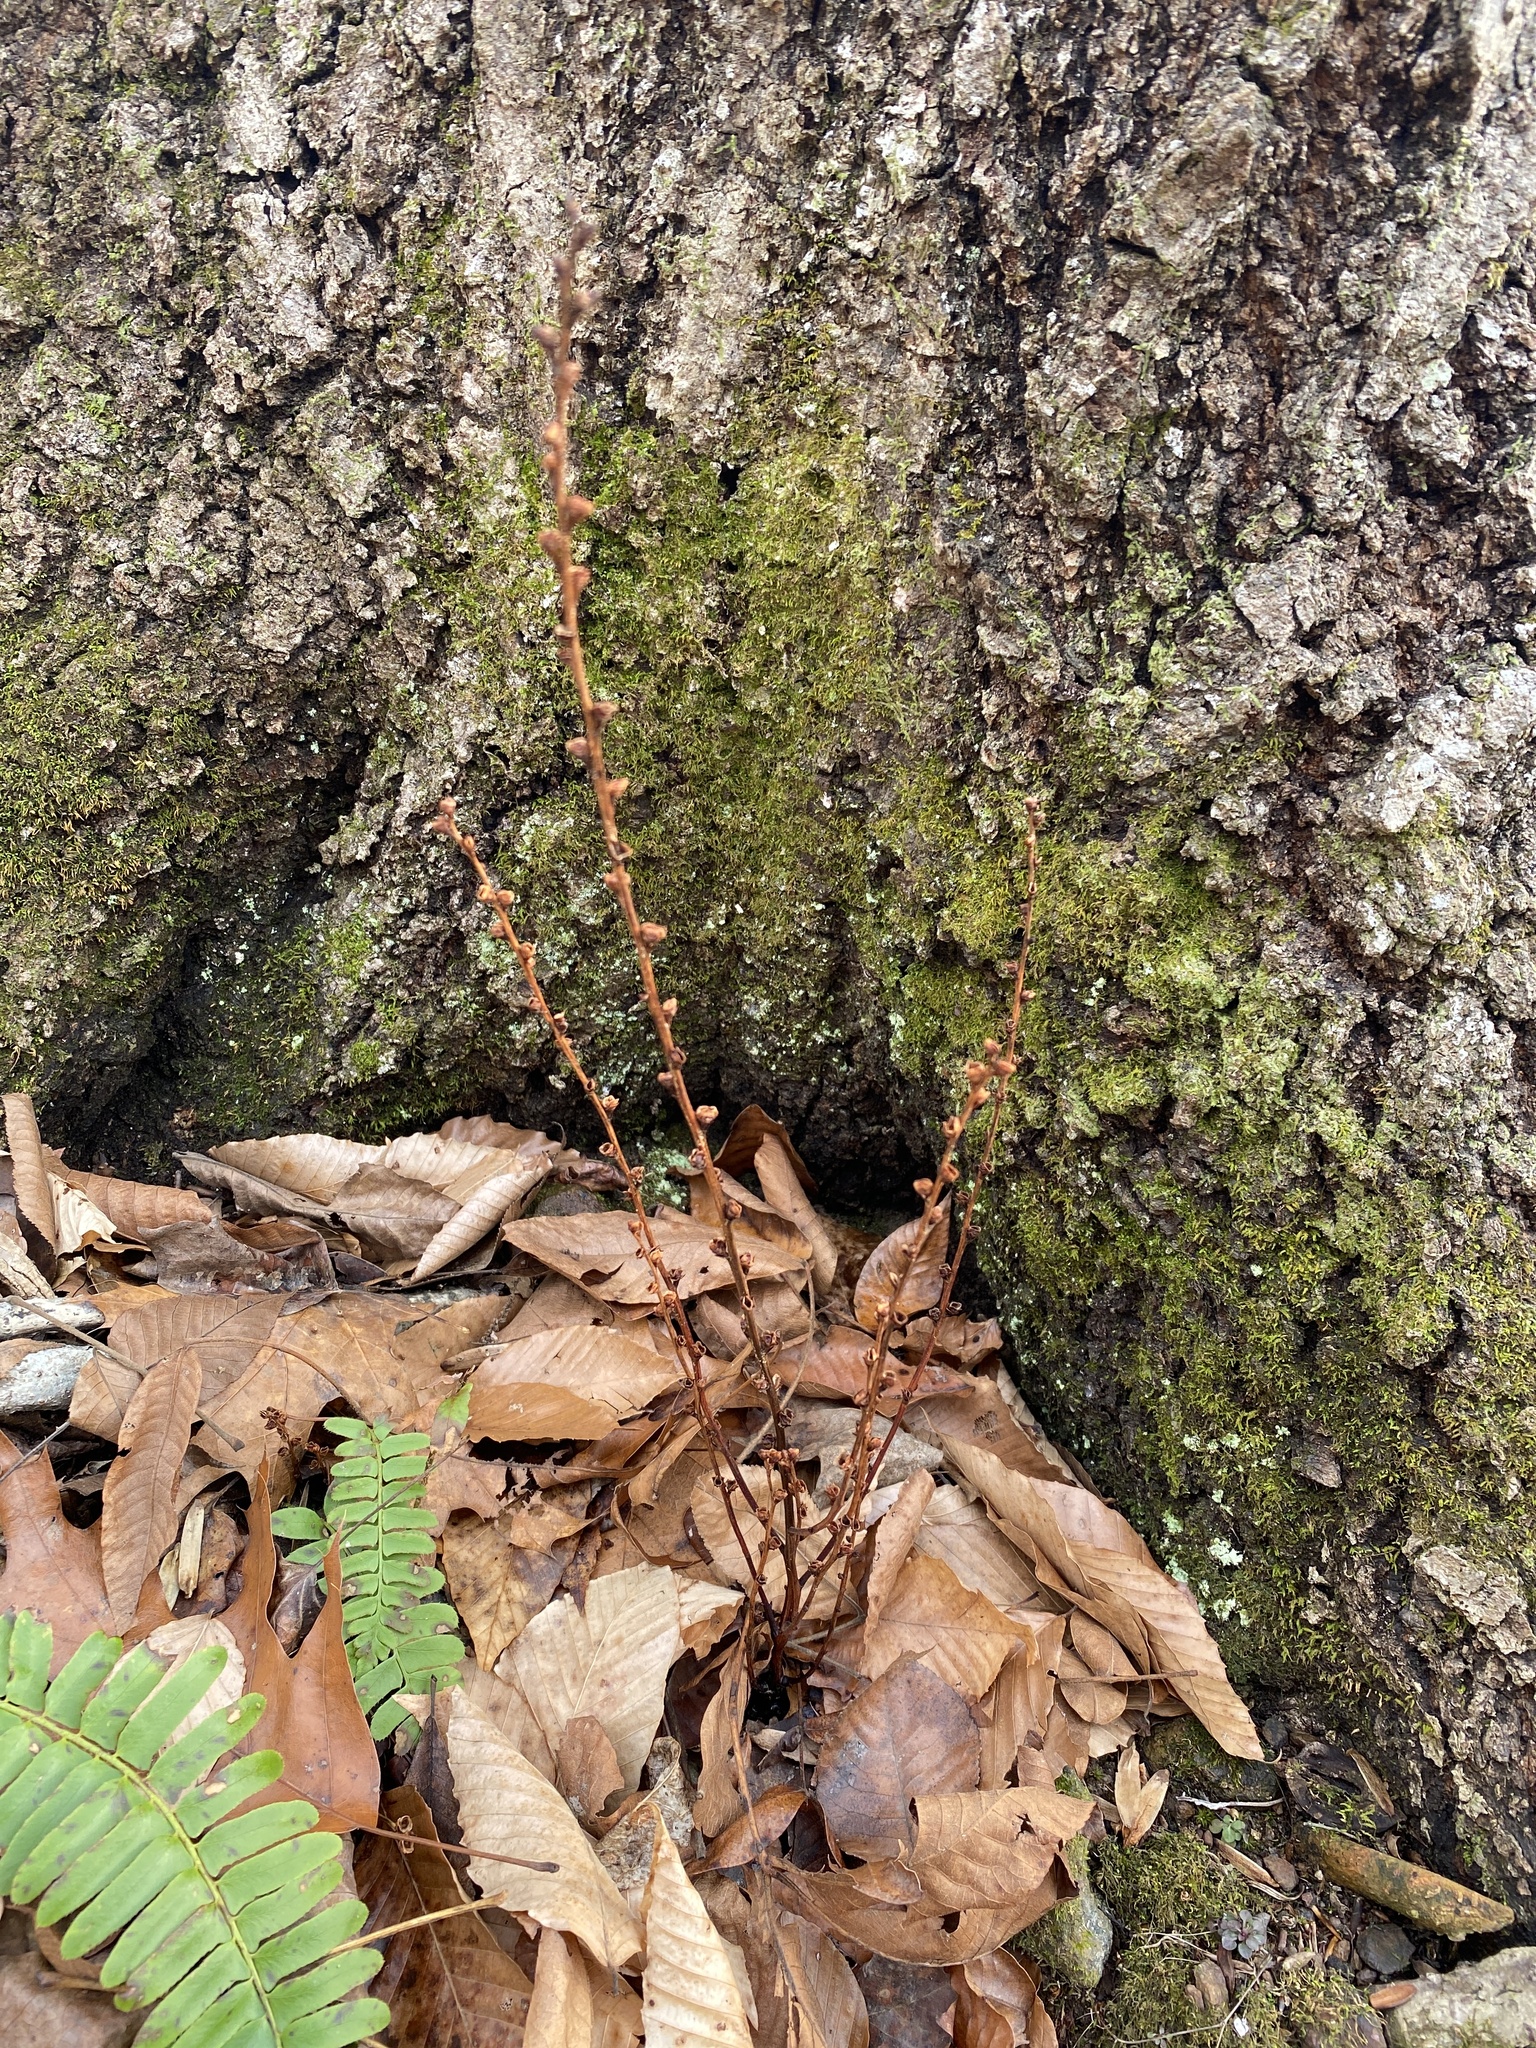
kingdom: Plantae
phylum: Tracheophyta
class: Magnoliopsida
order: Lamiales
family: Orobanchaceae
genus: Epifagus
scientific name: Epifagus virginiana
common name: Beechdrops
